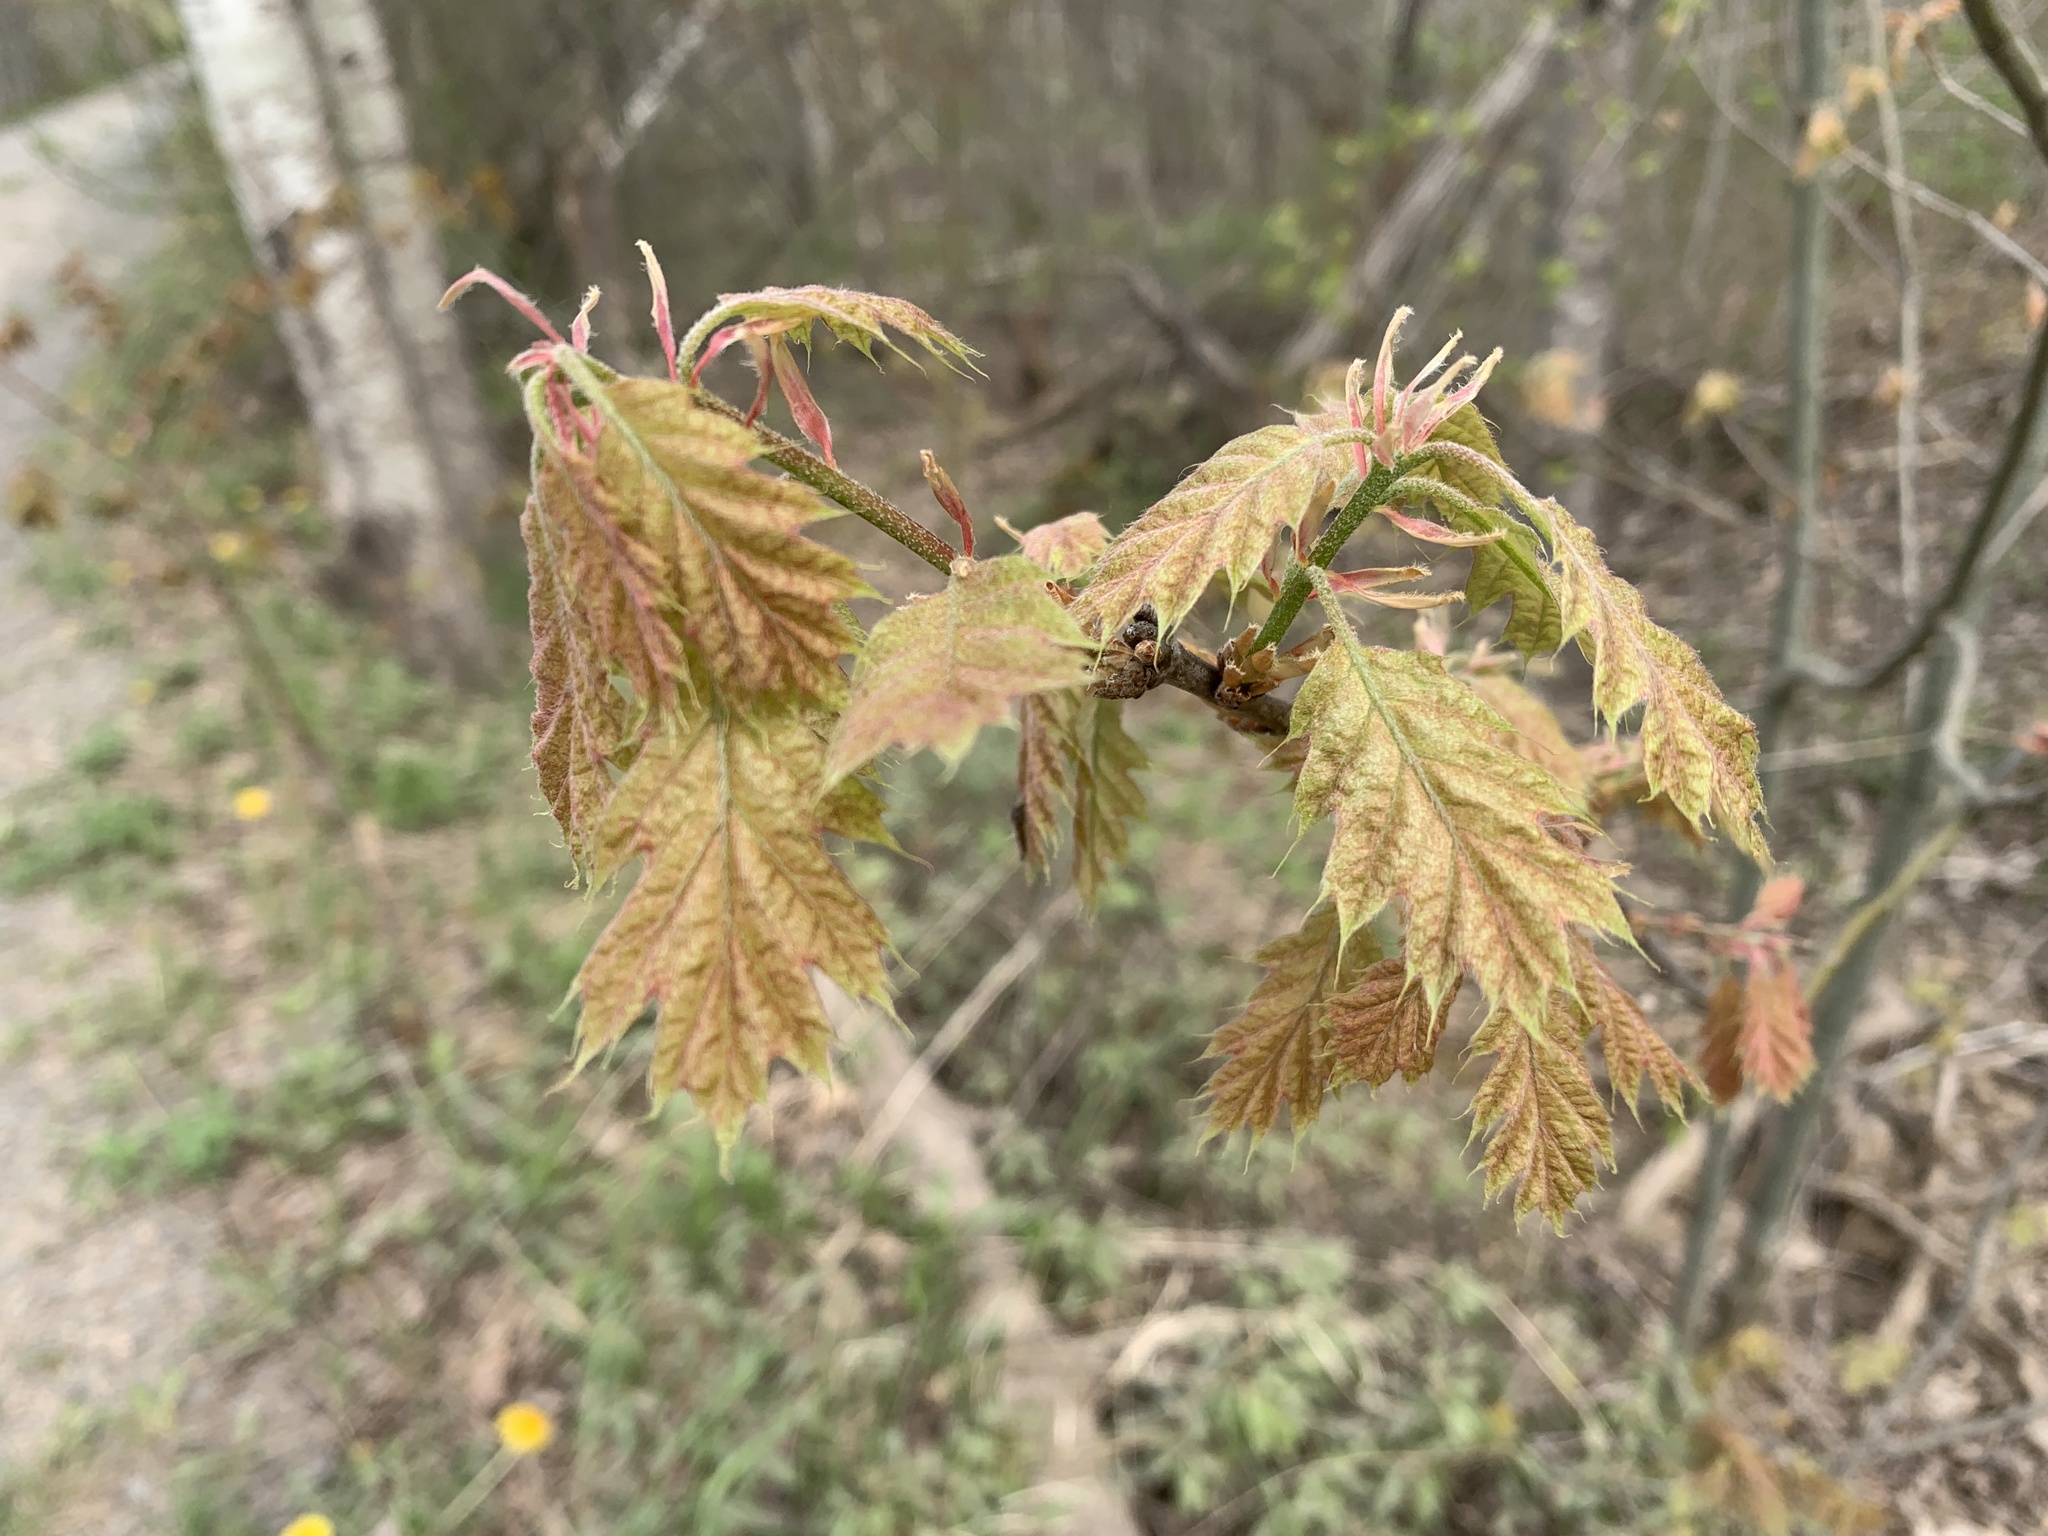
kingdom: Plantae
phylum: Tracheophyta
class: Magnoliopsida
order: Fagales
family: Fagaceae
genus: Quercus
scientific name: Quercus rubra
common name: Red oak
